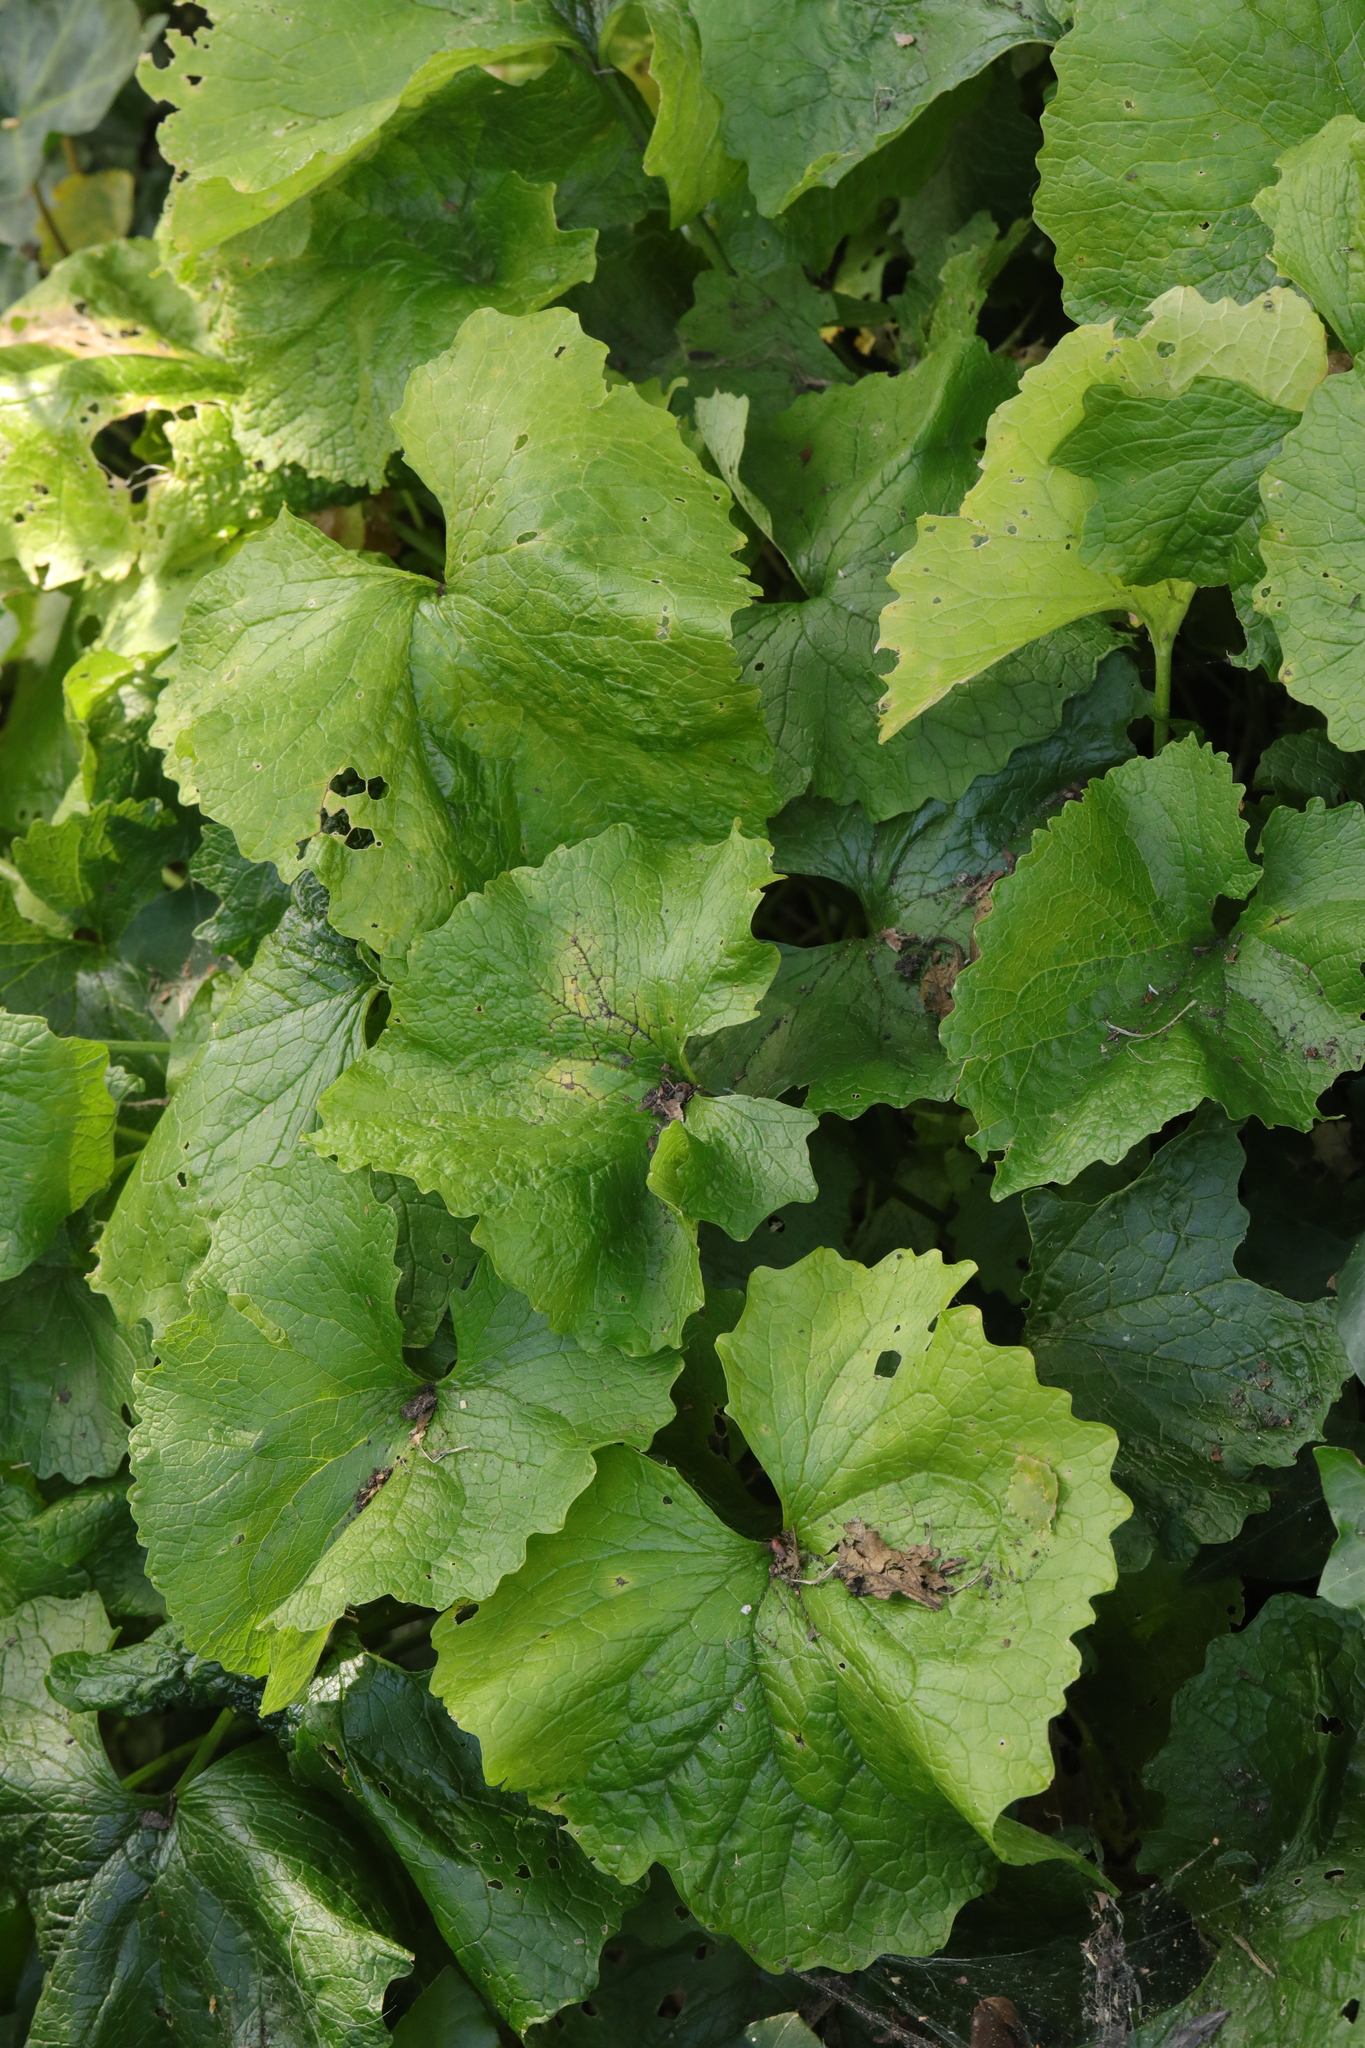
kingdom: Plantae
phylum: Tracheophyta
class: Magnoliopsida
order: Brassicales
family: Brassicaceae
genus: Alliaria
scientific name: Alliaria petiolata
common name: Garlic mustard
